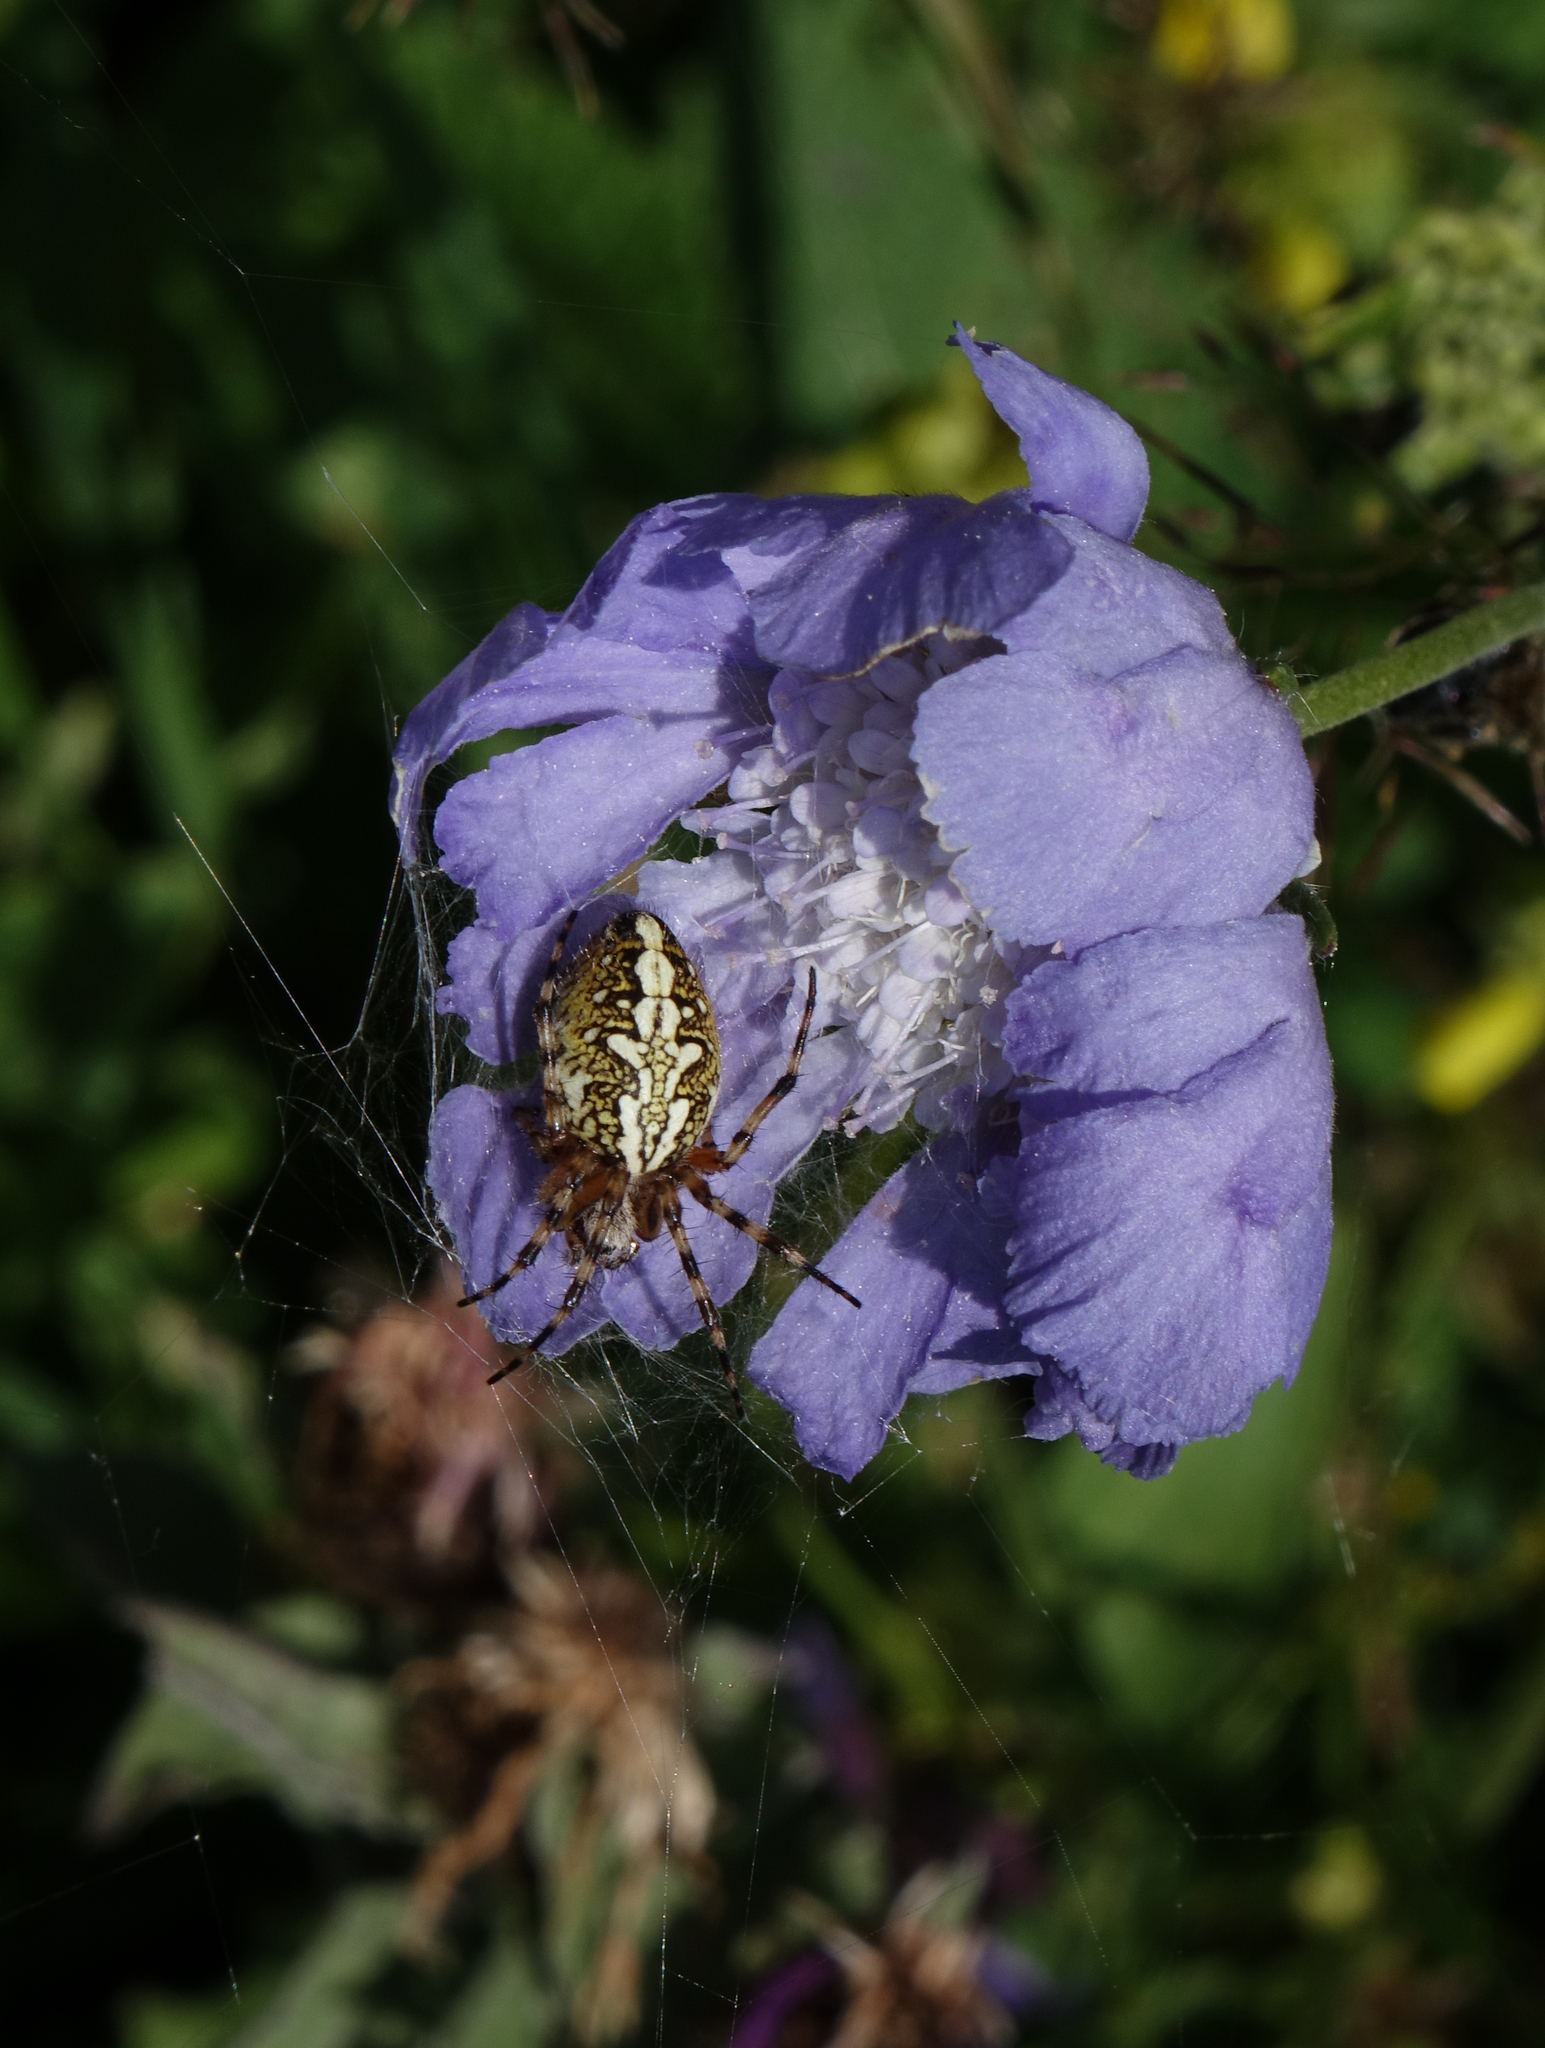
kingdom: Animalia
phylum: Arthropoda
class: Arachnida
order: Araneae
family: Araneidae
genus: Aculepeira
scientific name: Aculepeira ceropegia
